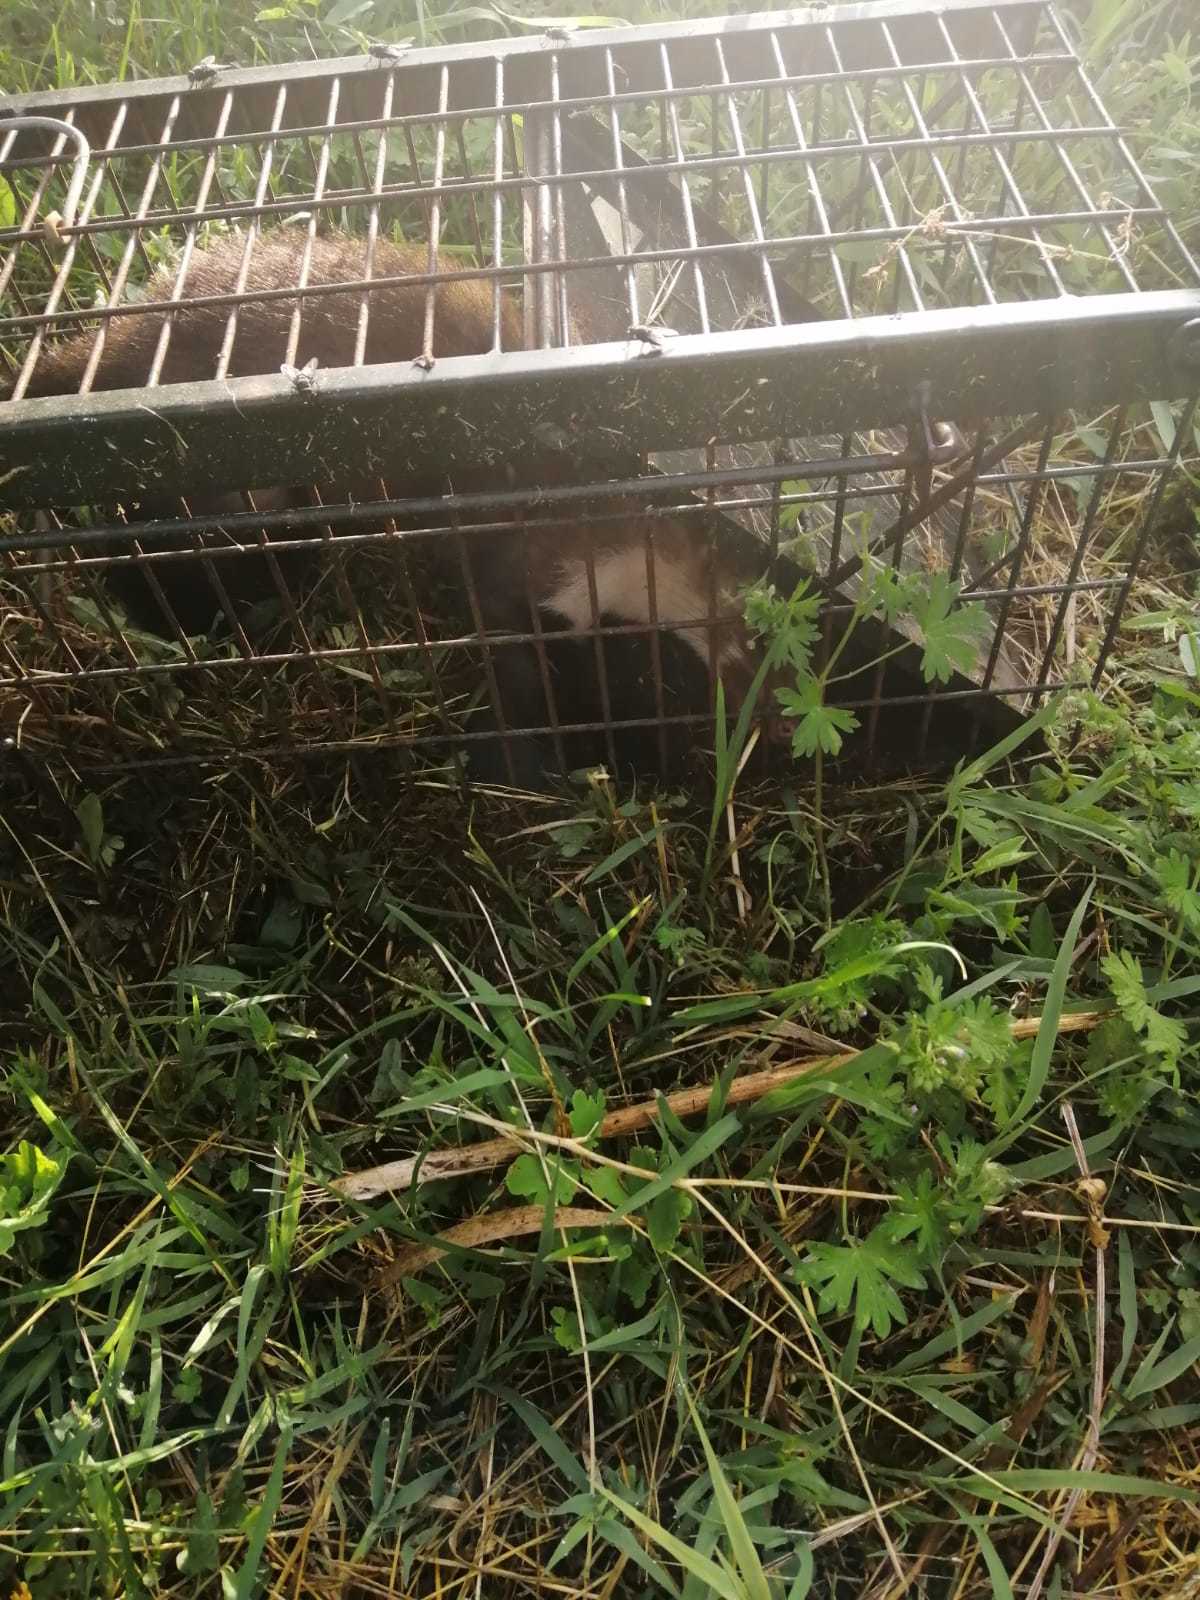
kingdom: Animalia
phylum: Chordata
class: Mammalia
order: Carnivora
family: Mustelidae
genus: Martes
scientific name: Martes foina
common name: Beech marten
